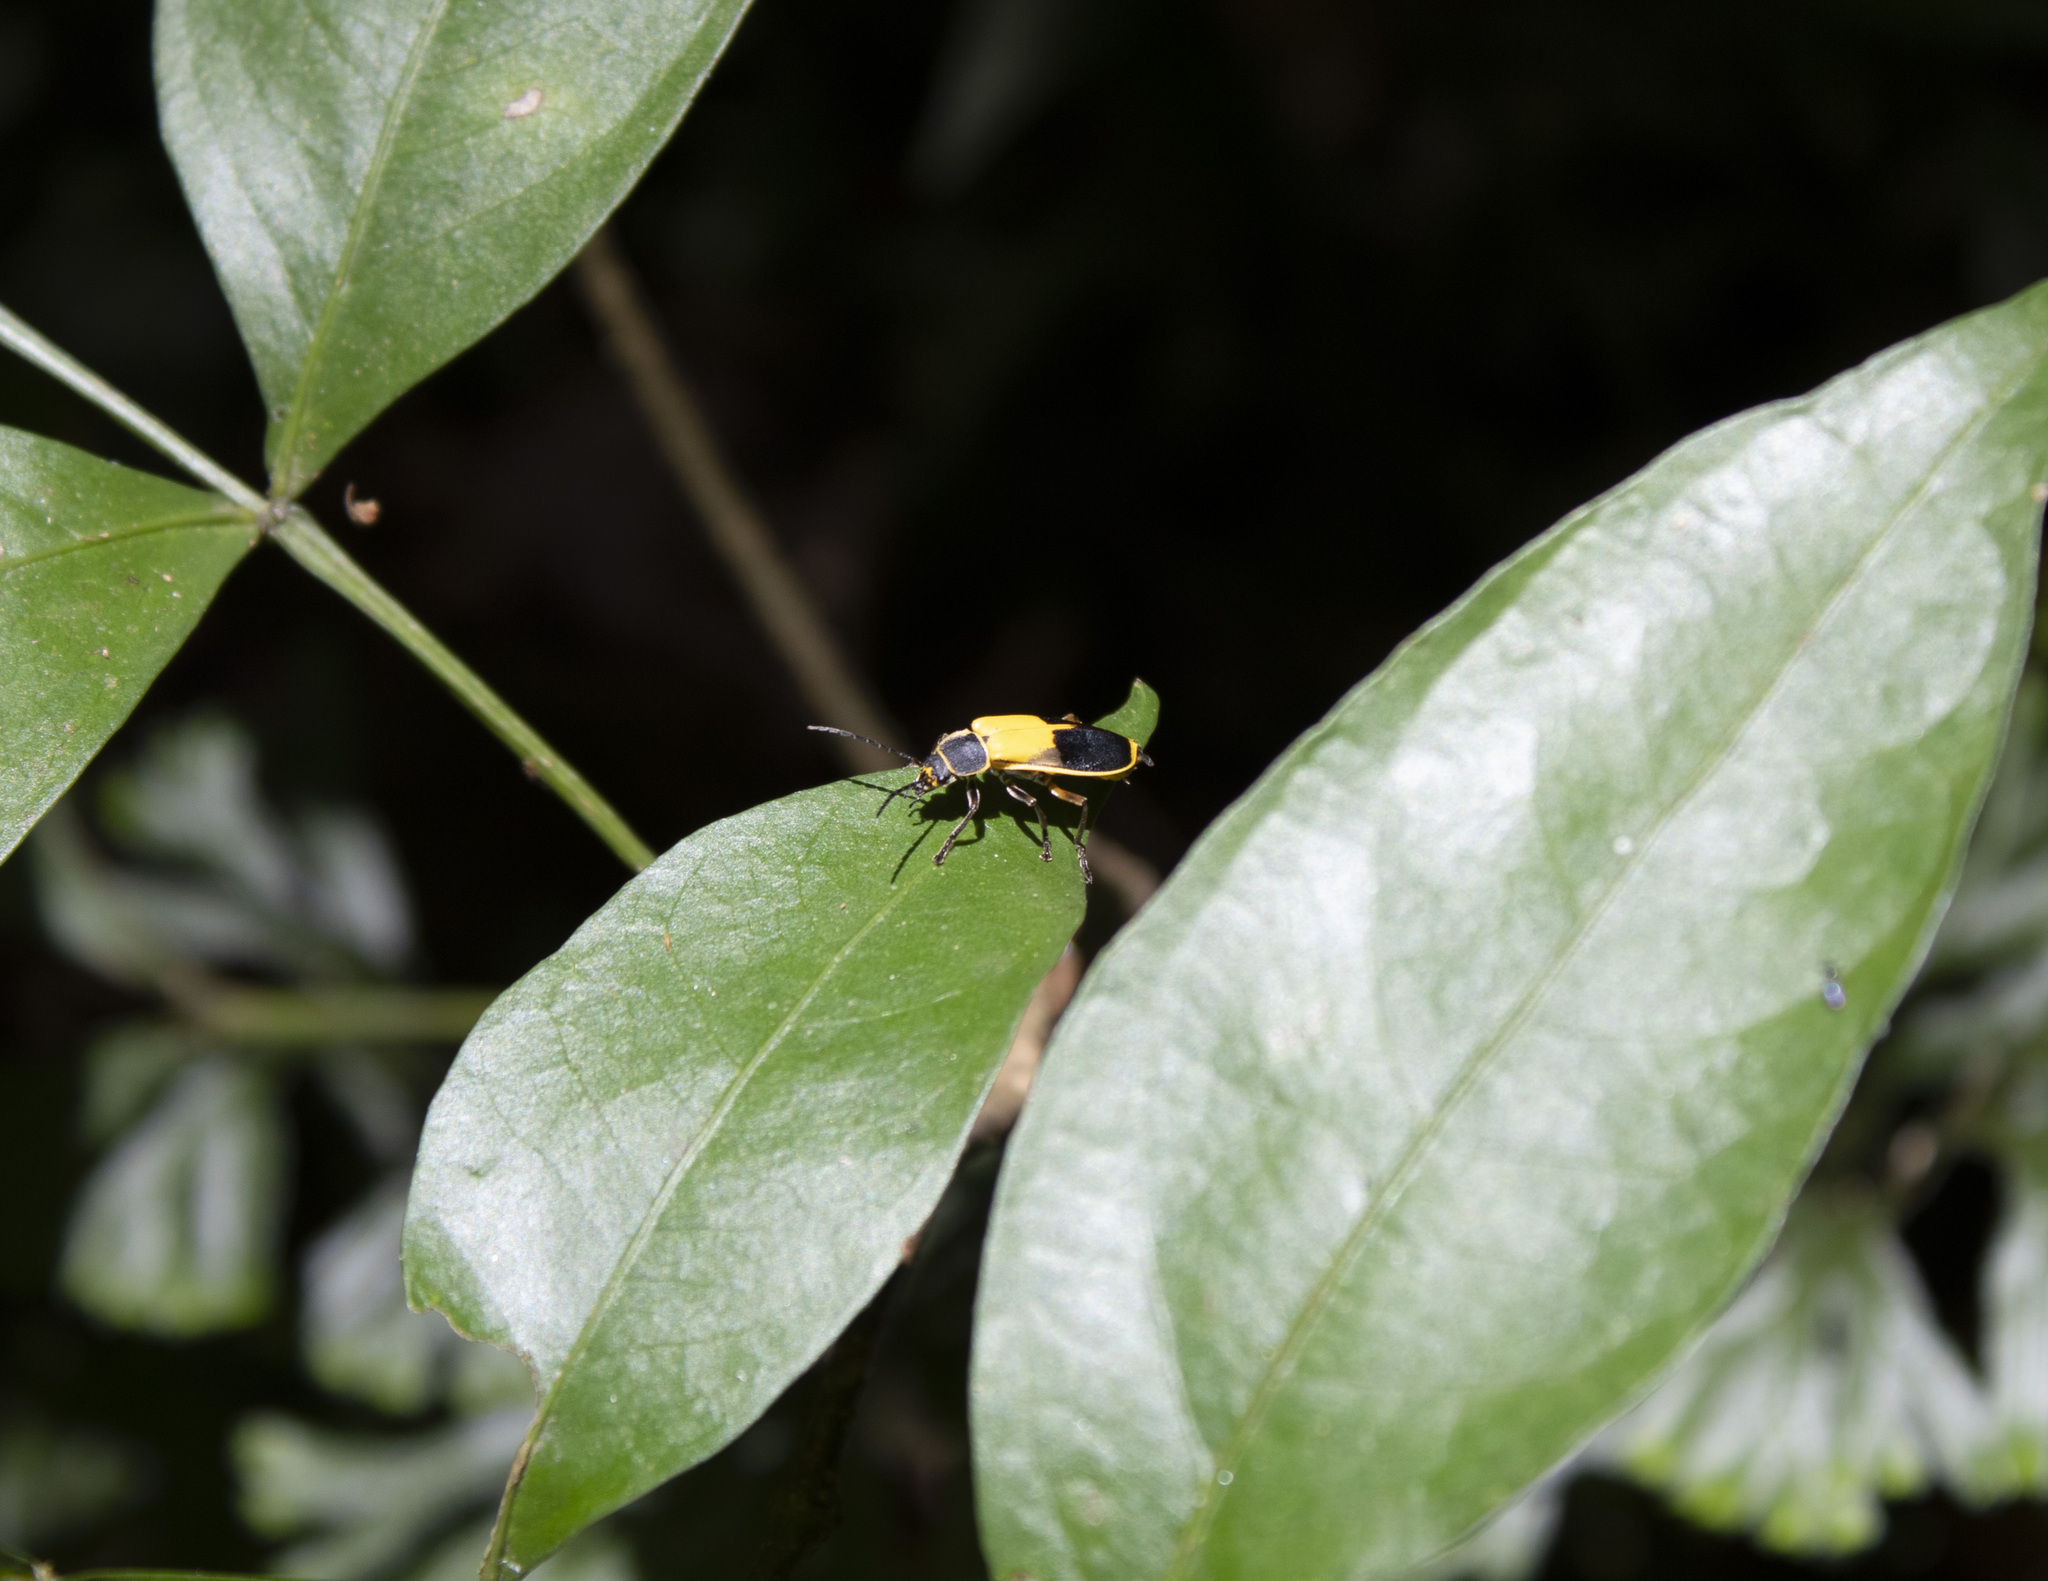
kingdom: Animalia
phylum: Arthropoda
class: Insecta
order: Coleoptera
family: Cantharidae
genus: Chauliognathus
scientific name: Chauliognathus
